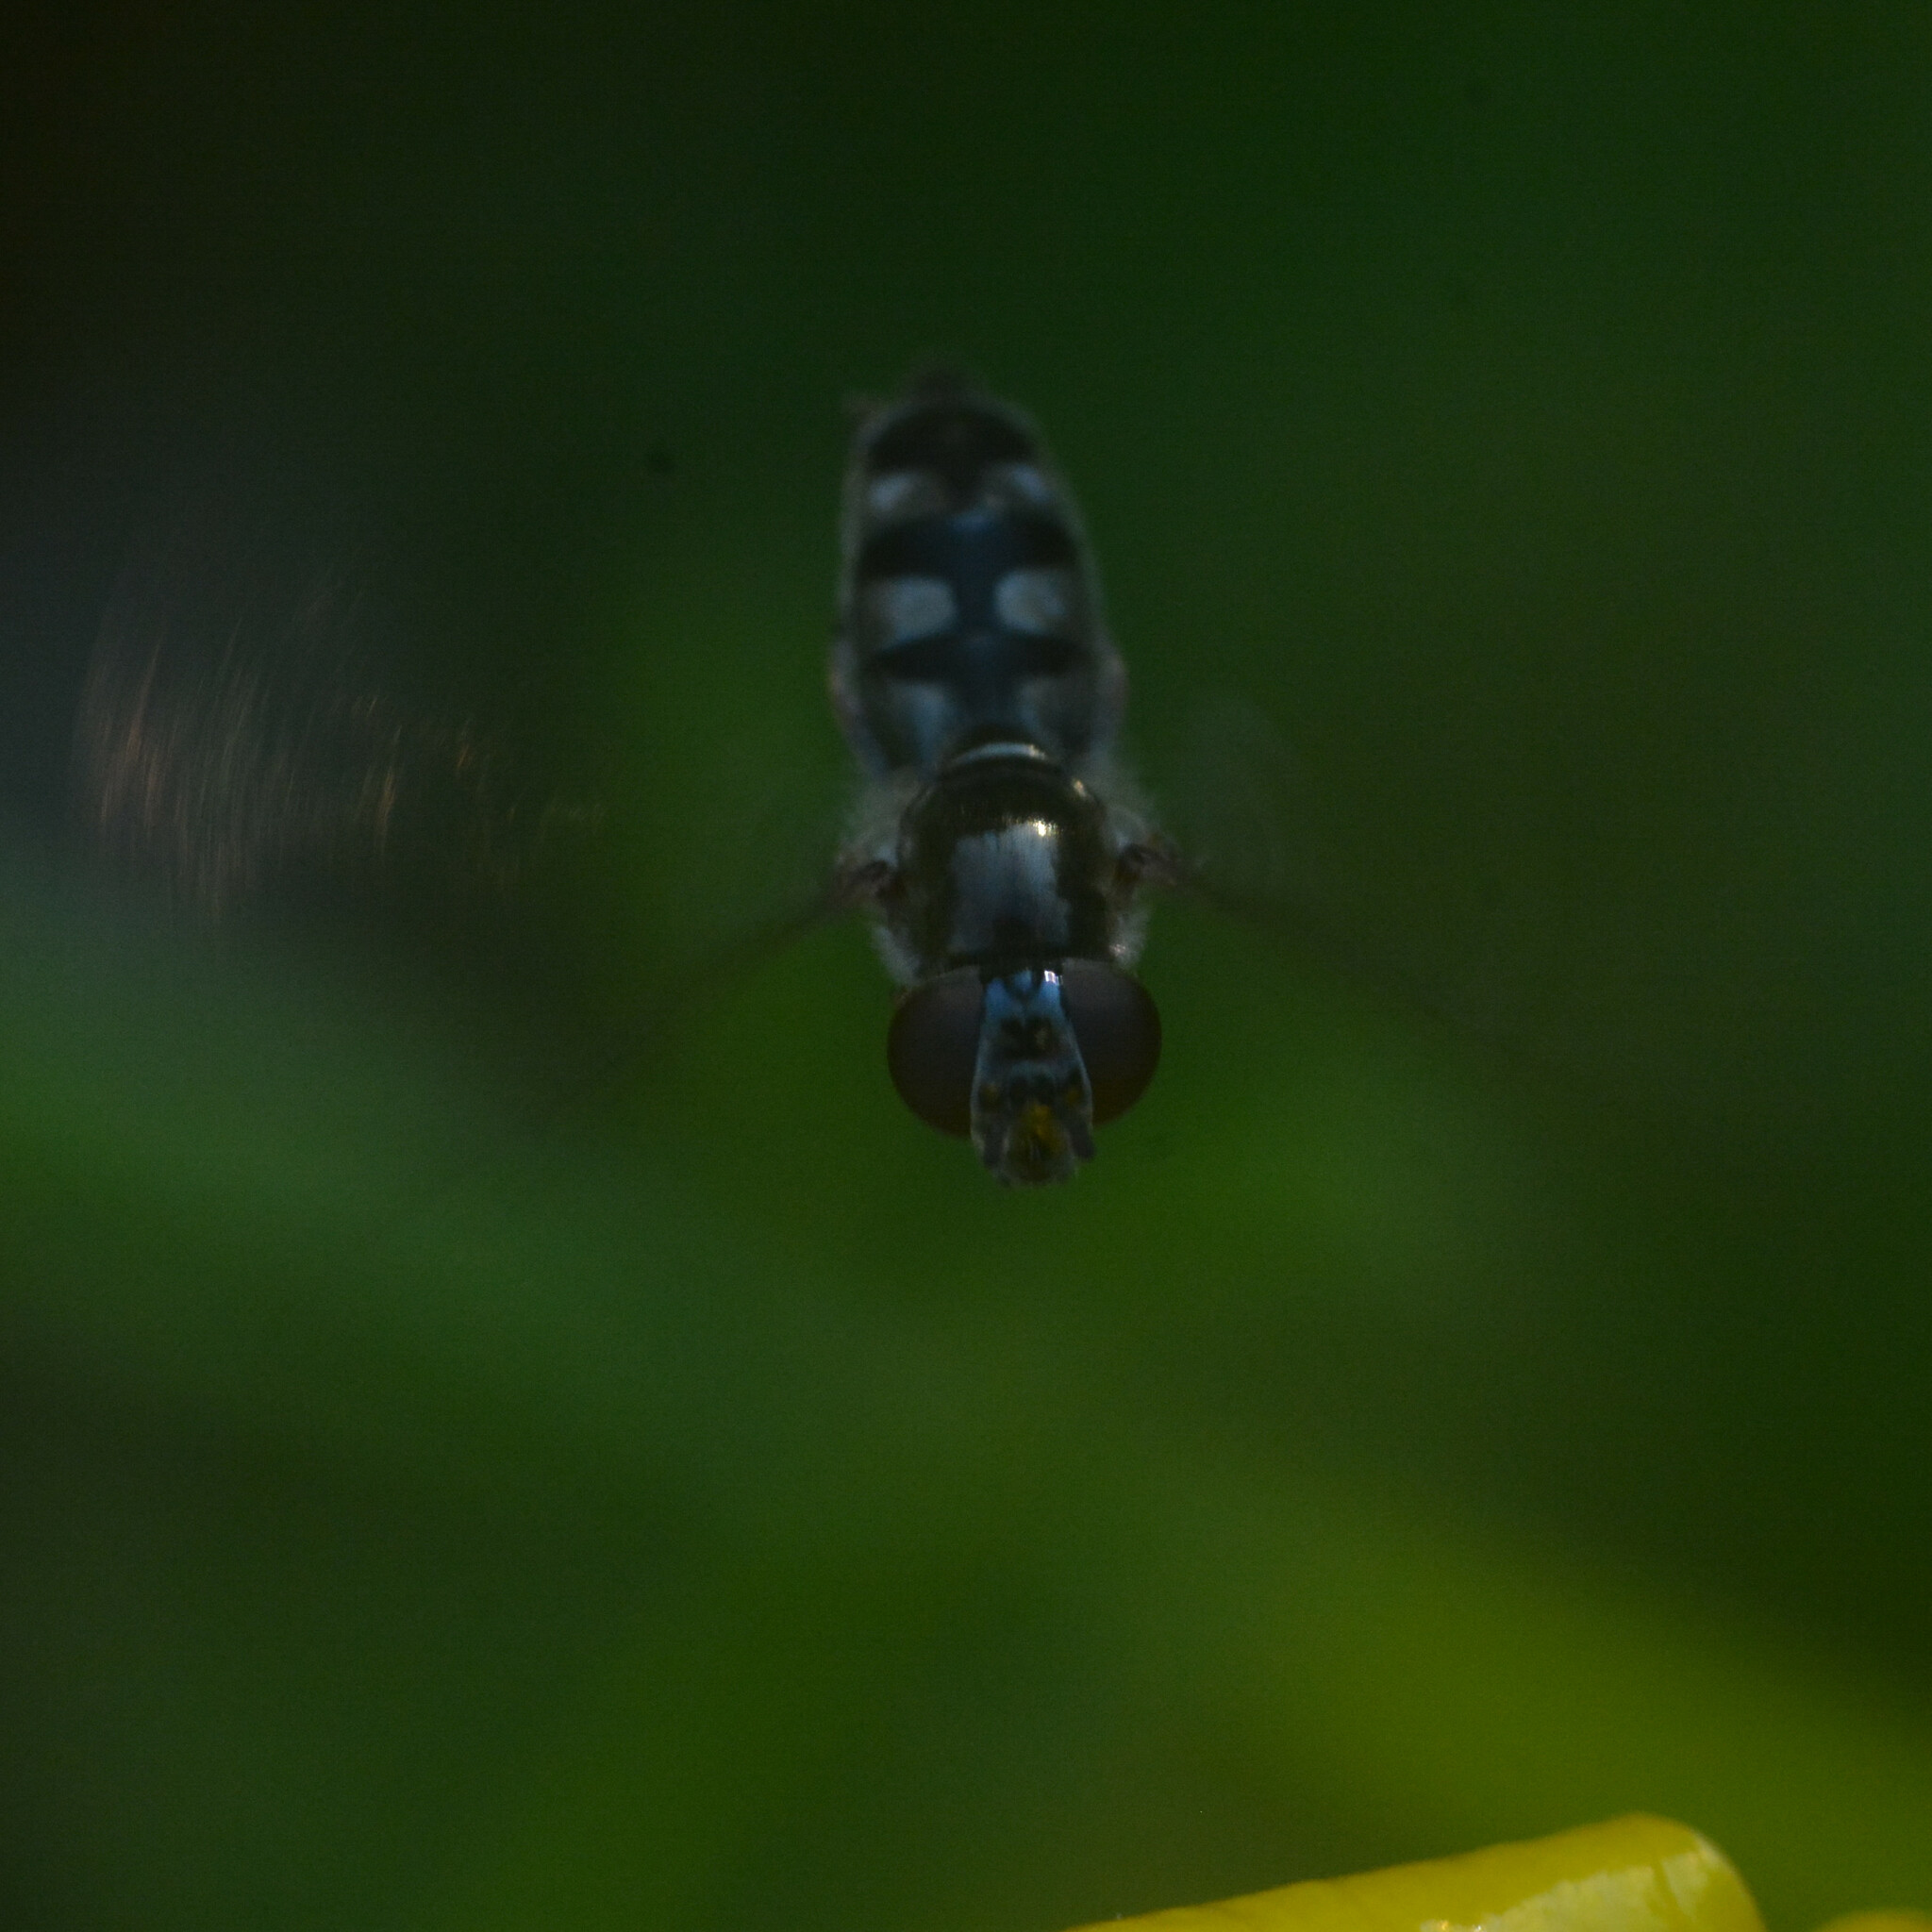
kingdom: Animalia
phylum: Arthropoda
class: Insecta
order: Diptera
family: Syrphidae
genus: Platycheirus
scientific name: Platycheirus albimanus
